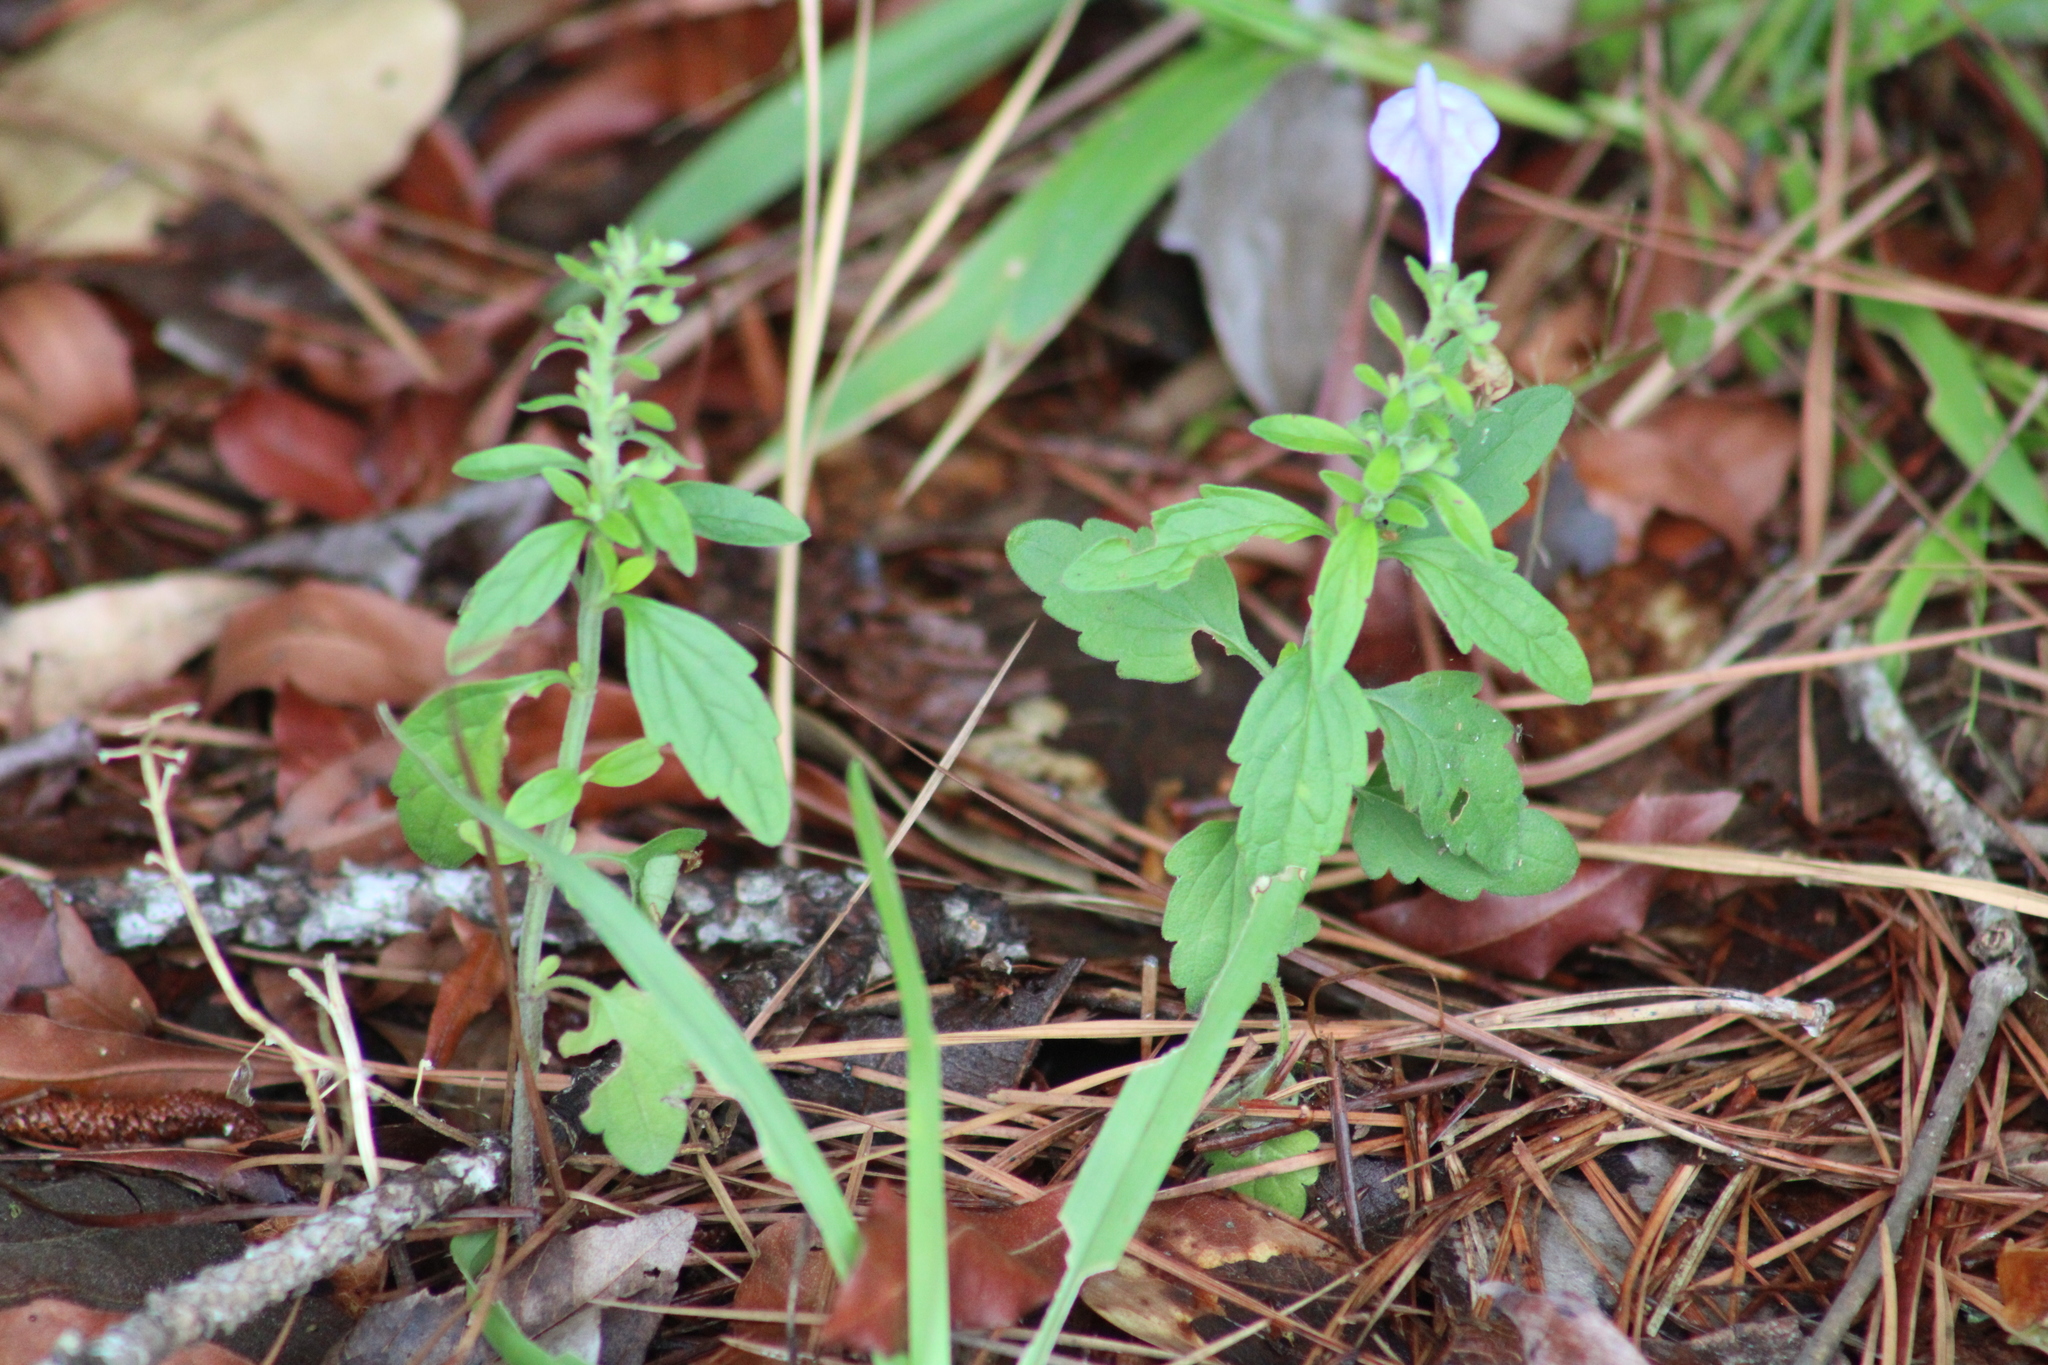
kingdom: Plantae
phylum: Tracheophyta
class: Magnoliopsida
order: Lamiales
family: Lamiaceae
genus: Scutellaria
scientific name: Scutellaria elliptica
